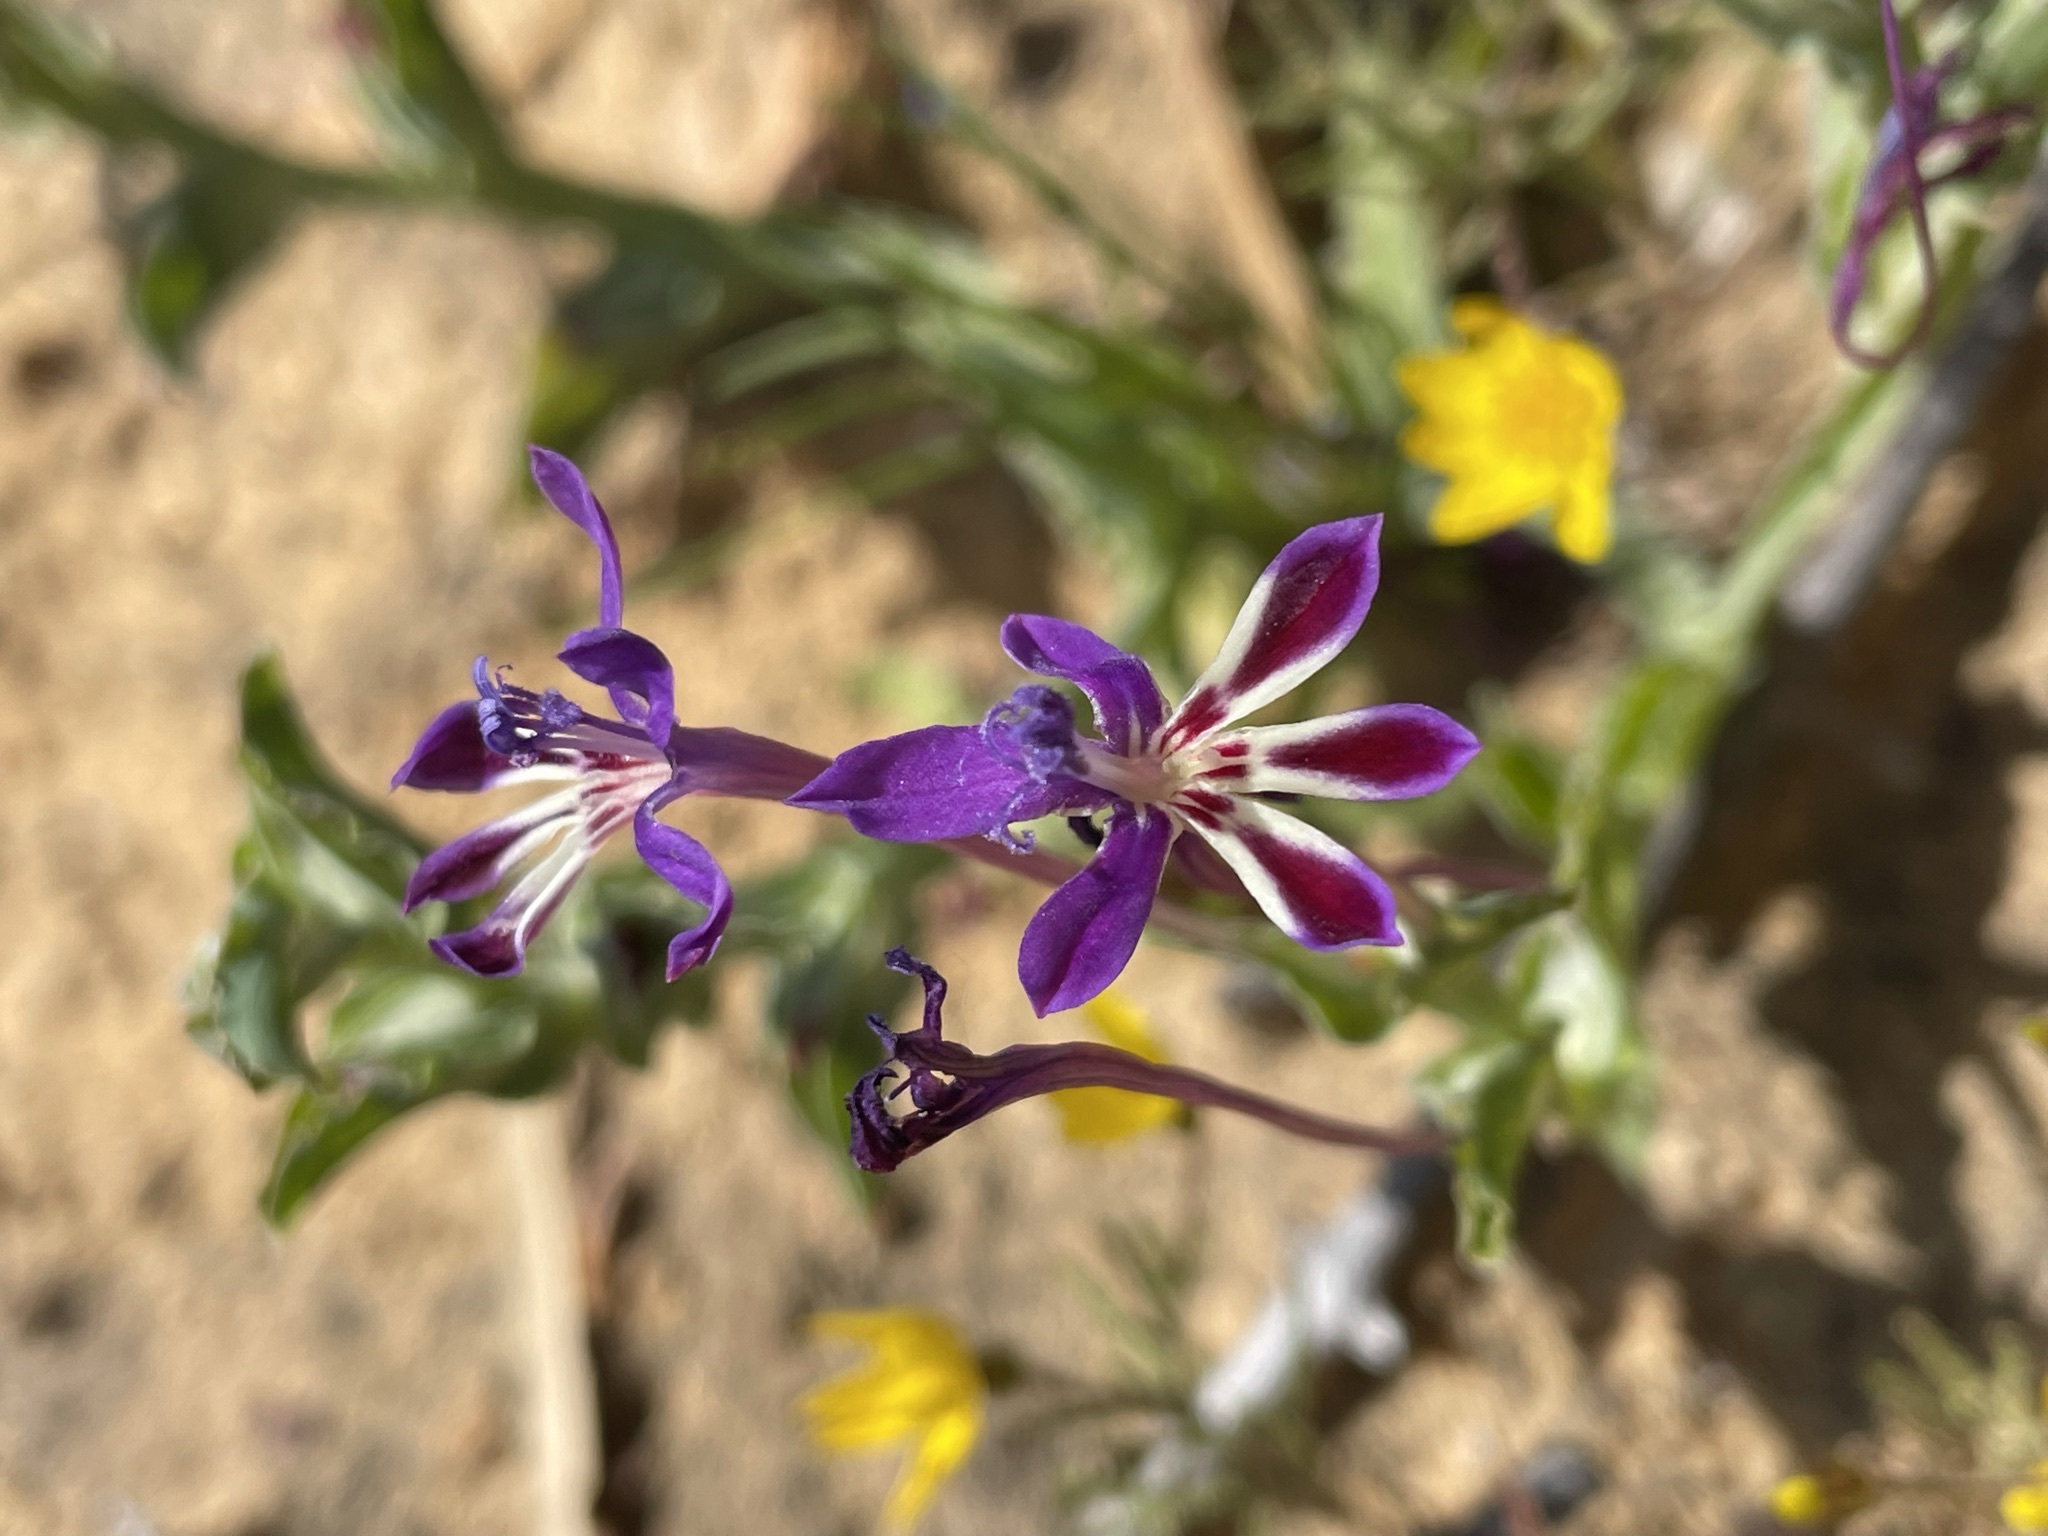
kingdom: Plantae
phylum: Tracheophyta
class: Liliopsida
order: Asparagales
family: Iridaceae
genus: Lapeirousia
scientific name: Lapeirousia jacquinii
